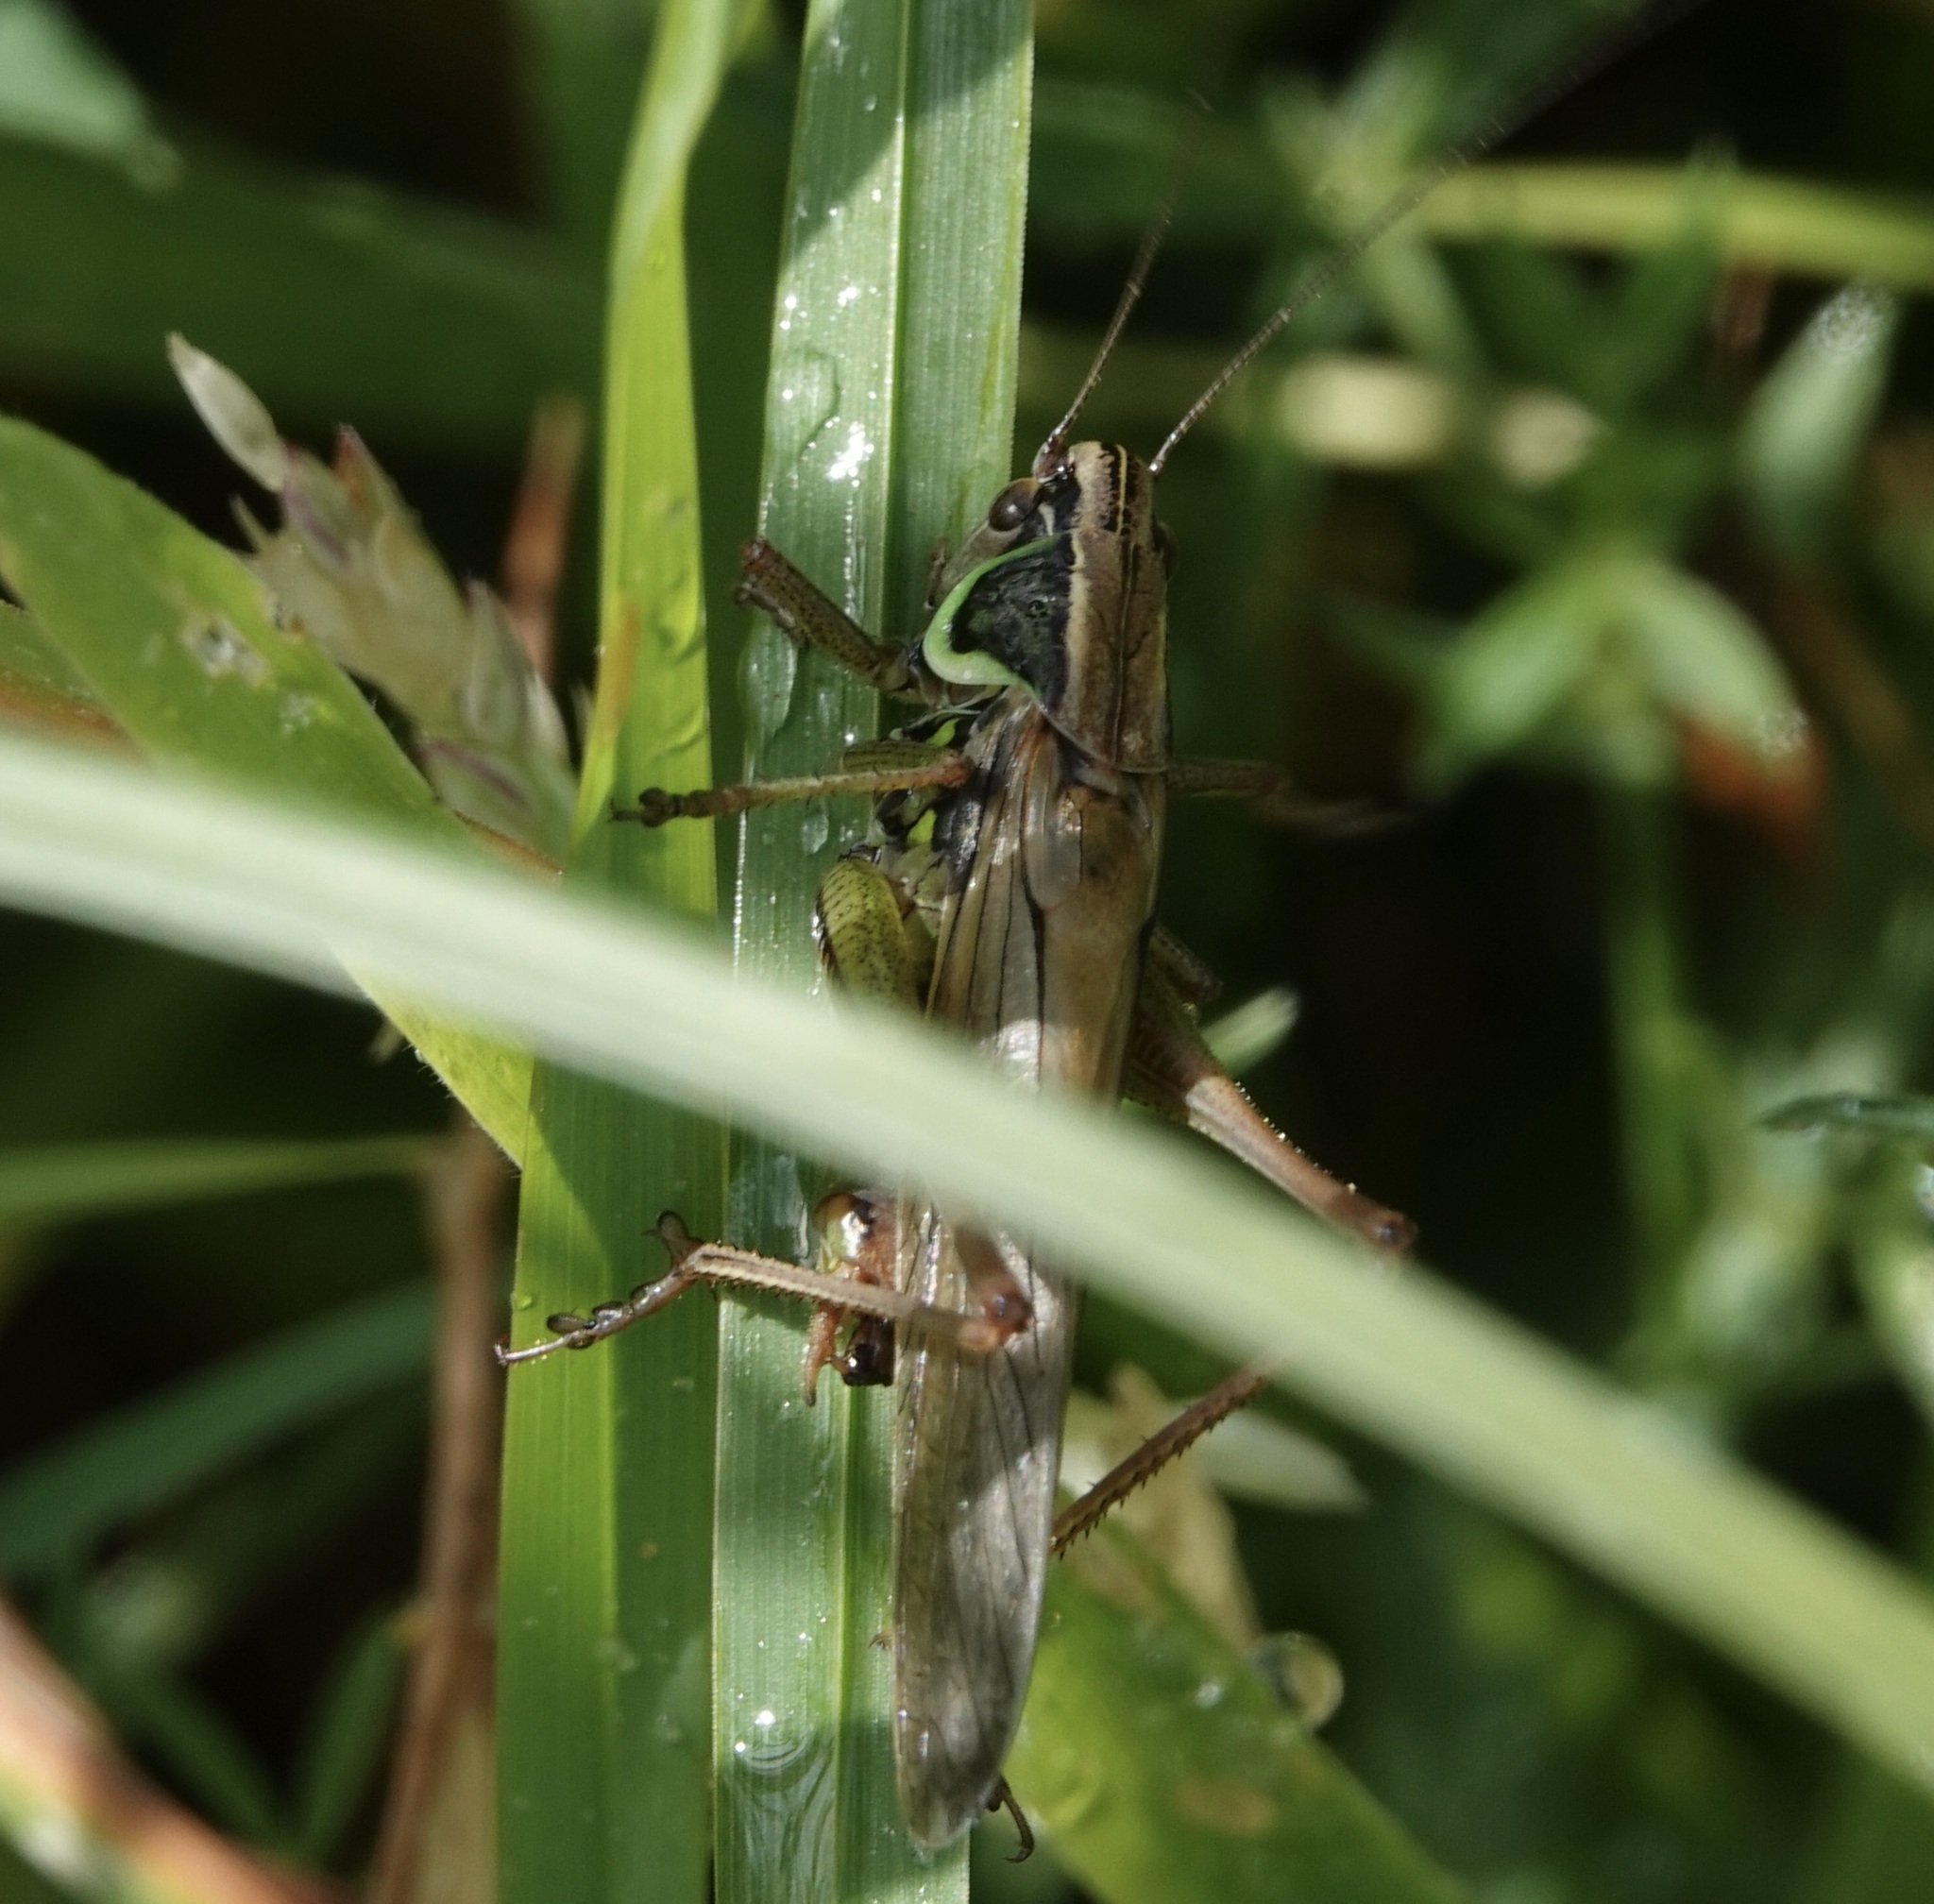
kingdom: Animalia
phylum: Arthropoda
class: Insecta
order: Orthoptera
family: Tettigoniidae
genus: Roeseliana
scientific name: Roeseliana roeselii
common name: Roesel's bush cricket
